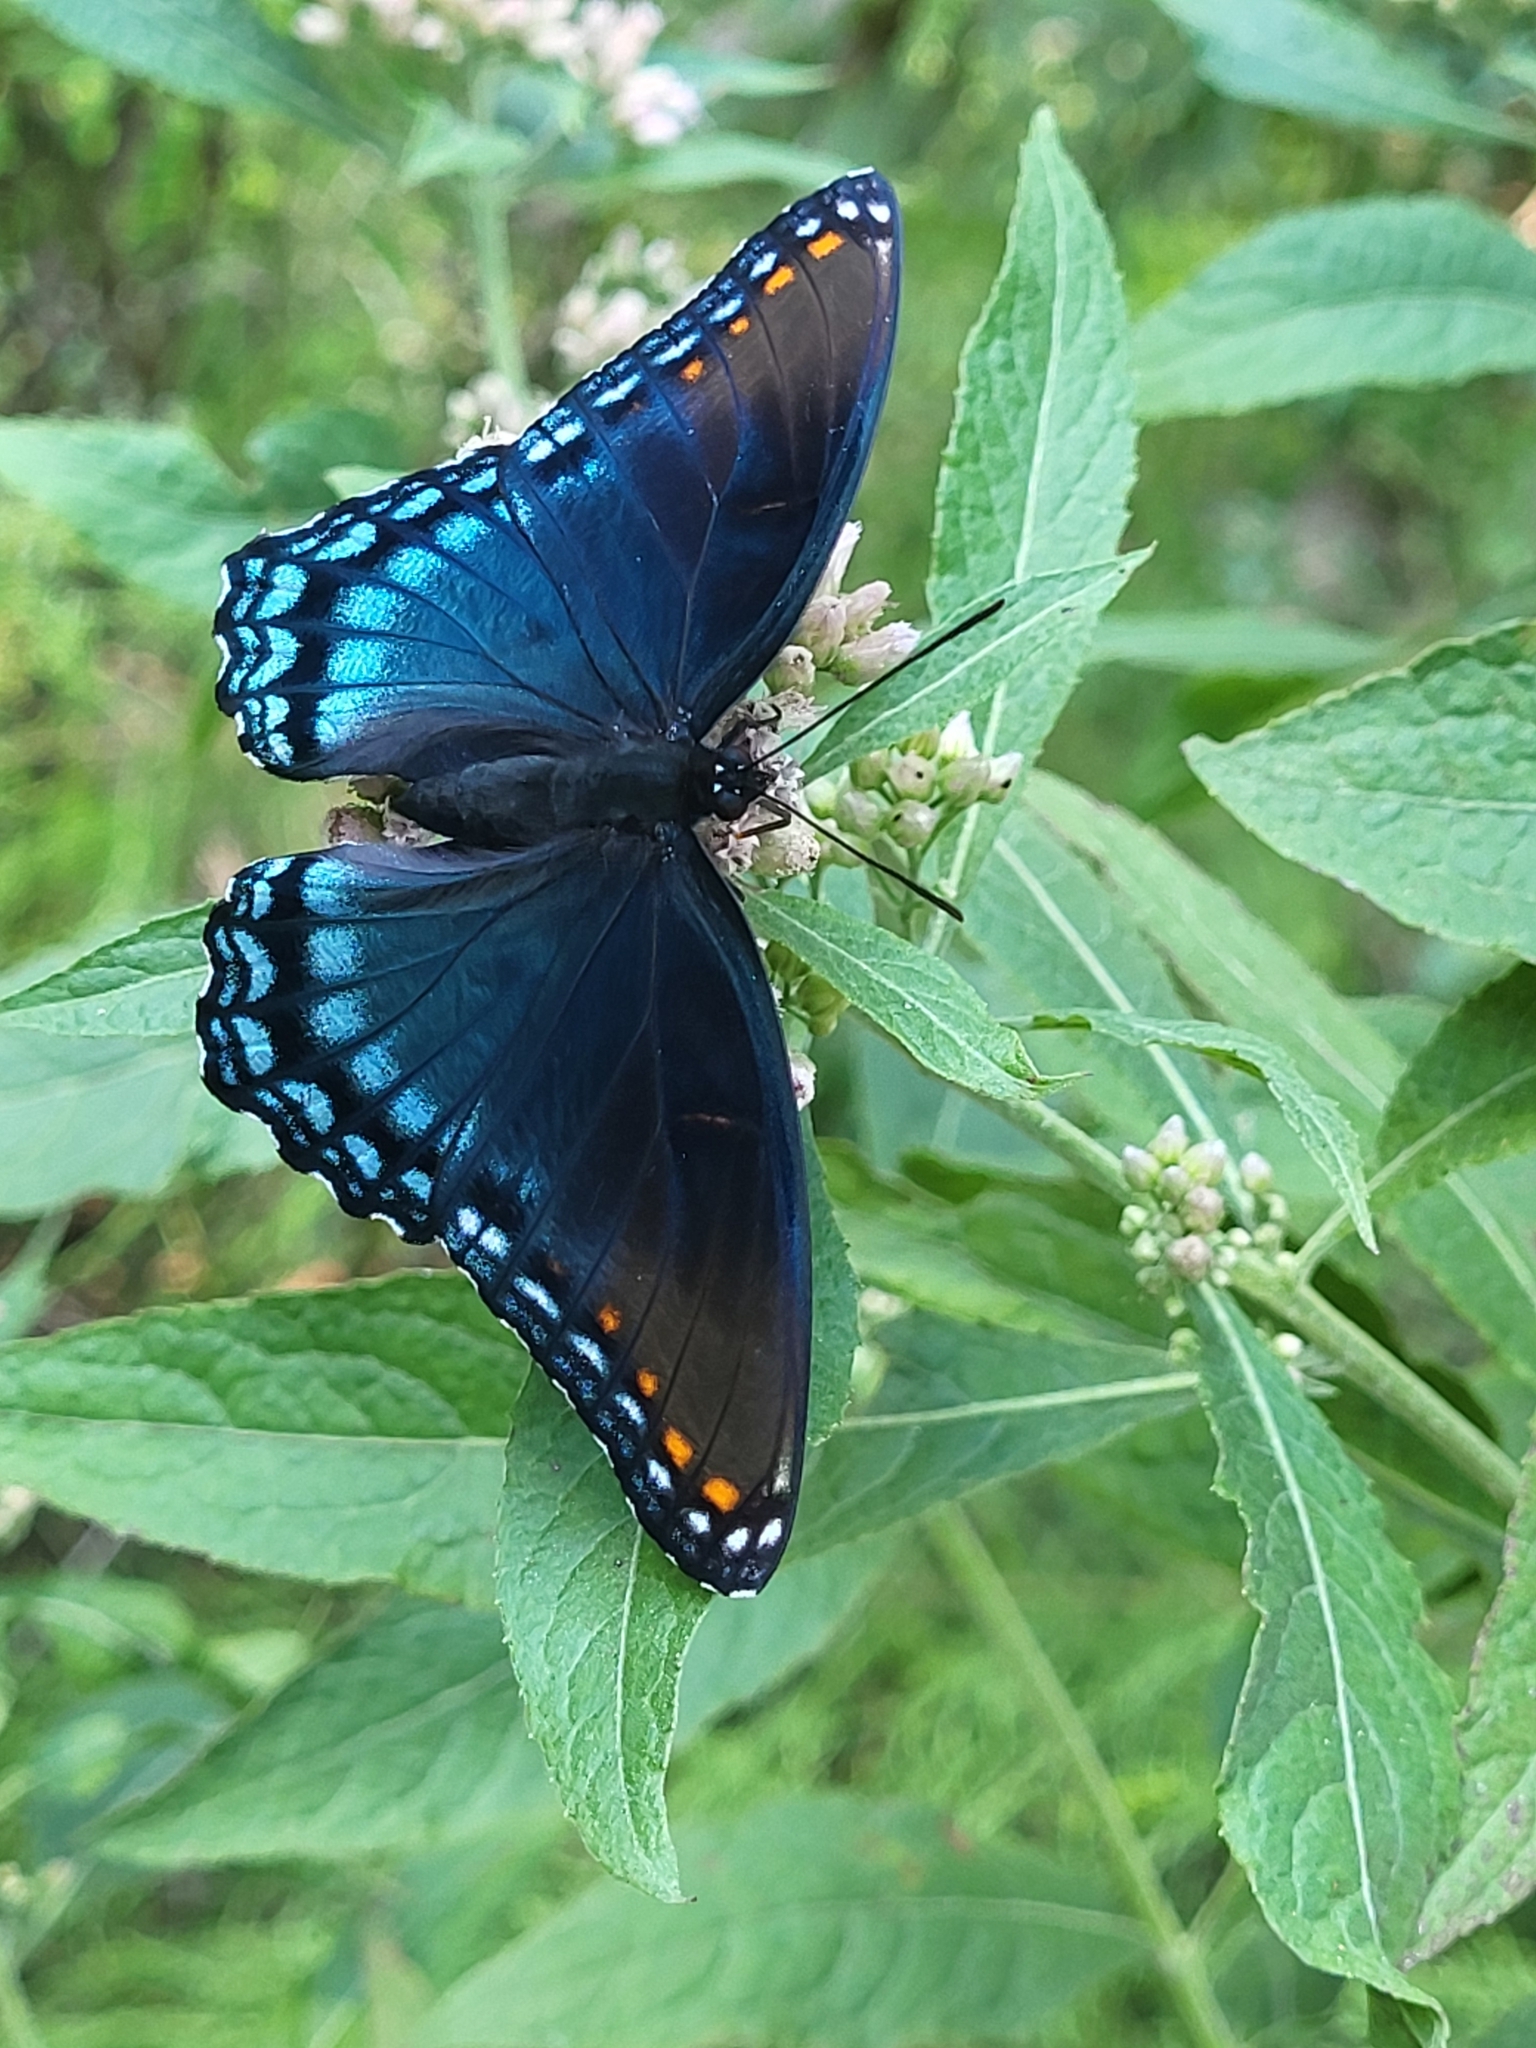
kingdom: Animalia
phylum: Arthropoda
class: Insecta
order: Lepidoptera
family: Nymphalidae
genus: Limenitis
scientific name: Limenitis astyanax
